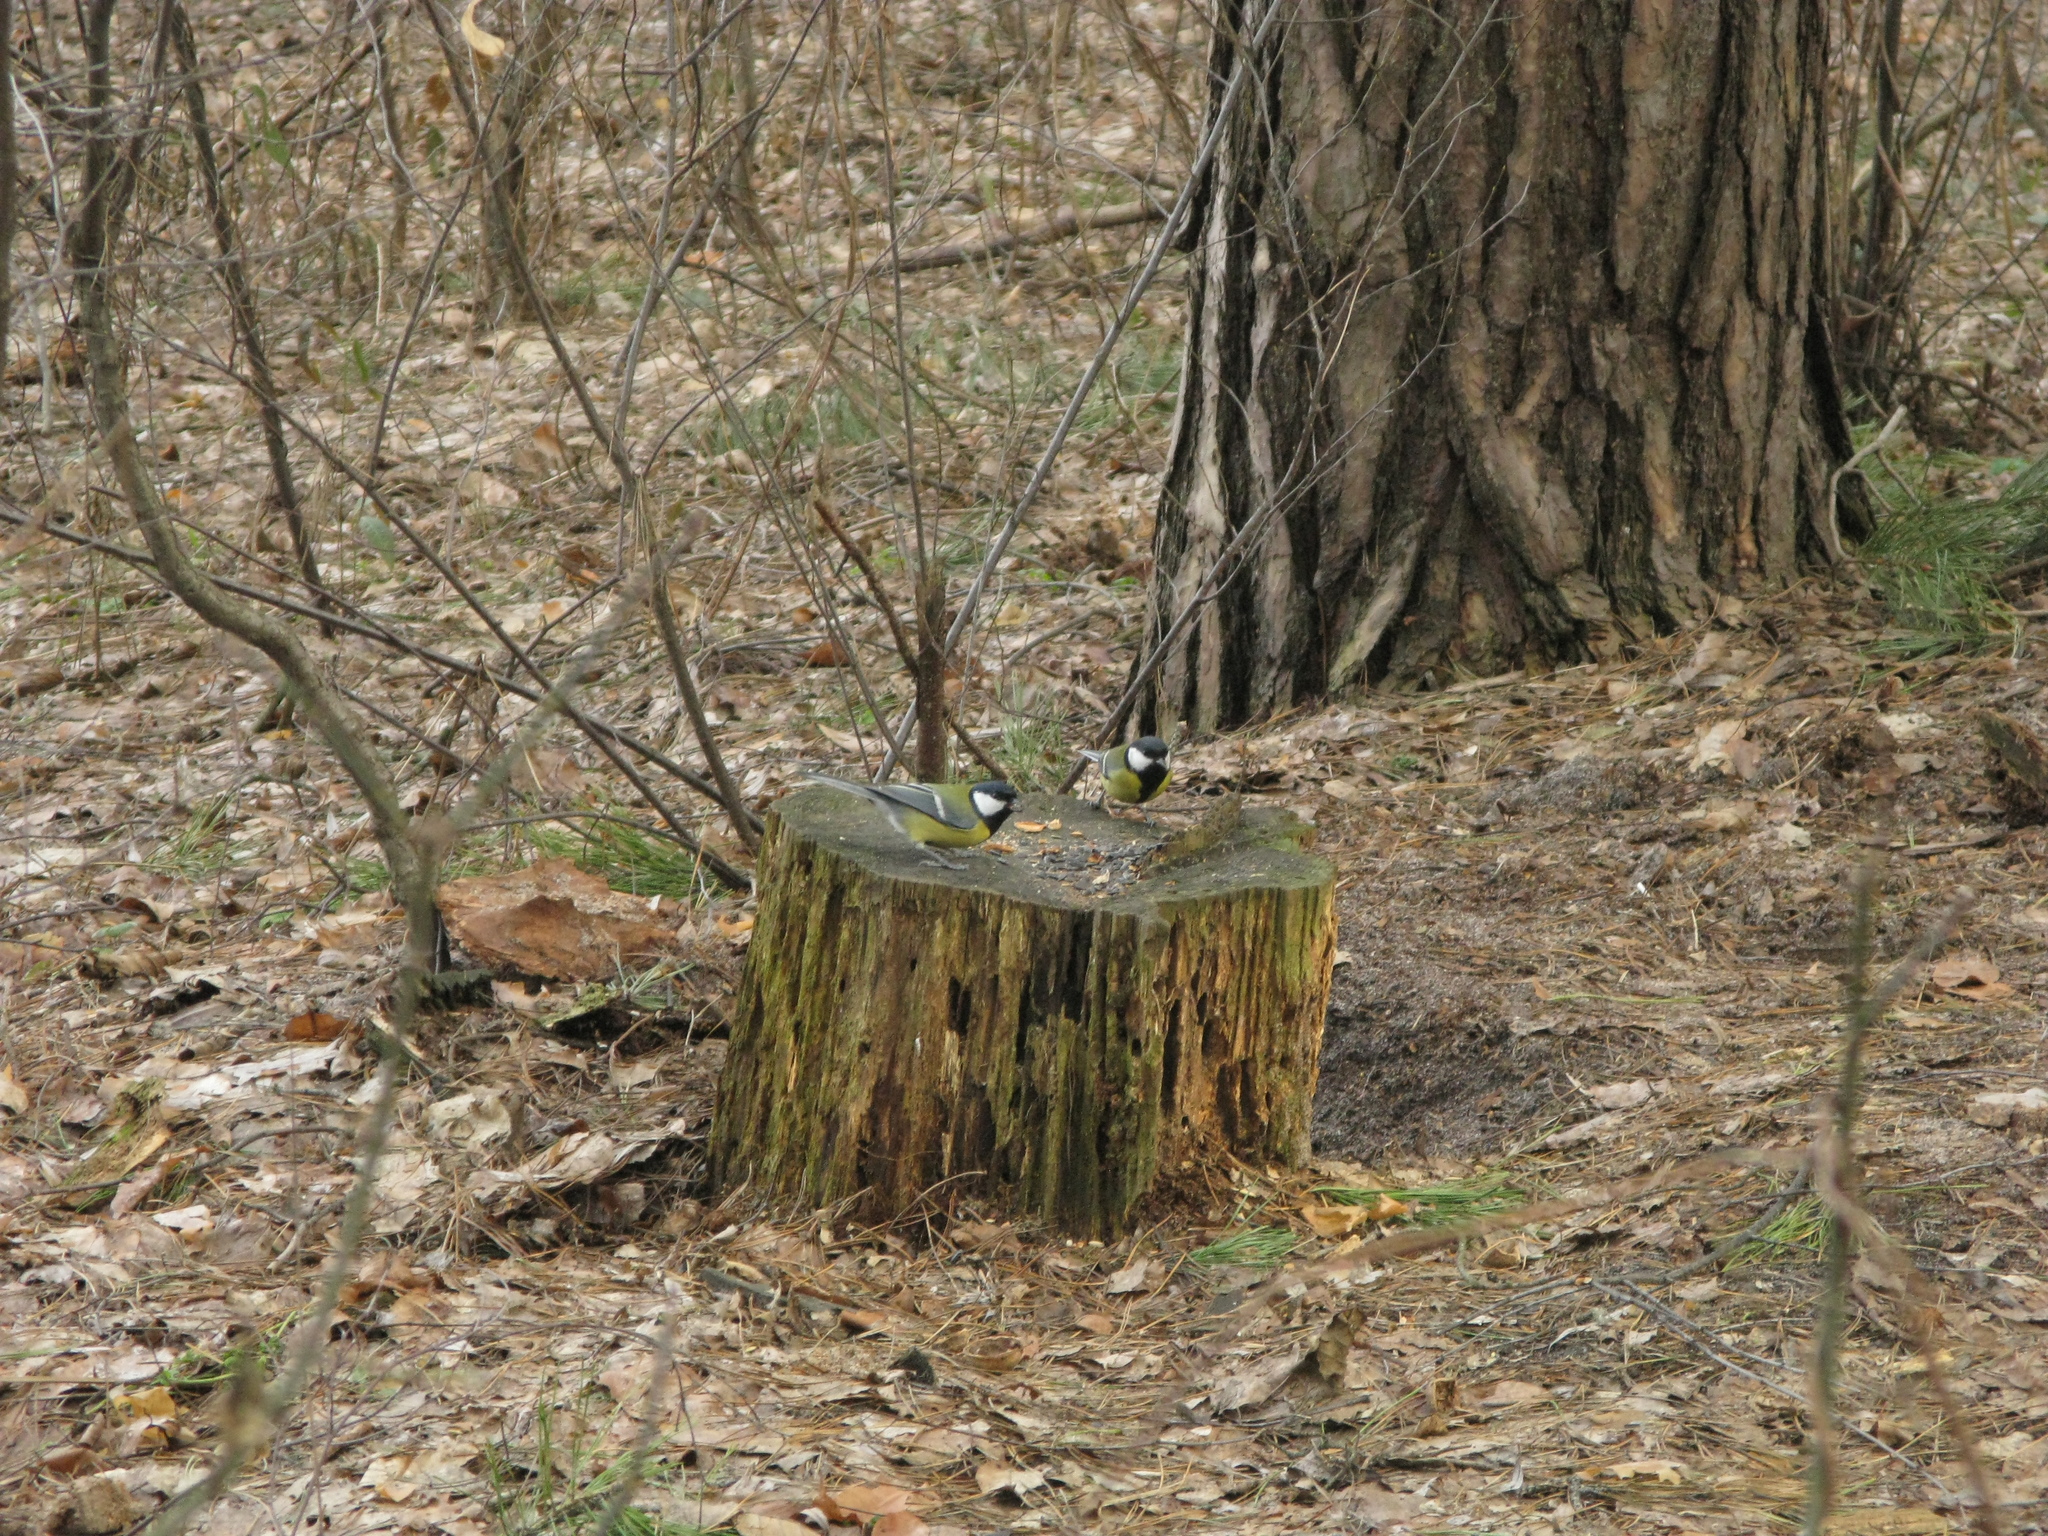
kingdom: Animalia
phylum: Chordata
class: Aves
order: Passeriformes
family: Paridae
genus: Parus
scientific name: Parus major
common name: Great tit
